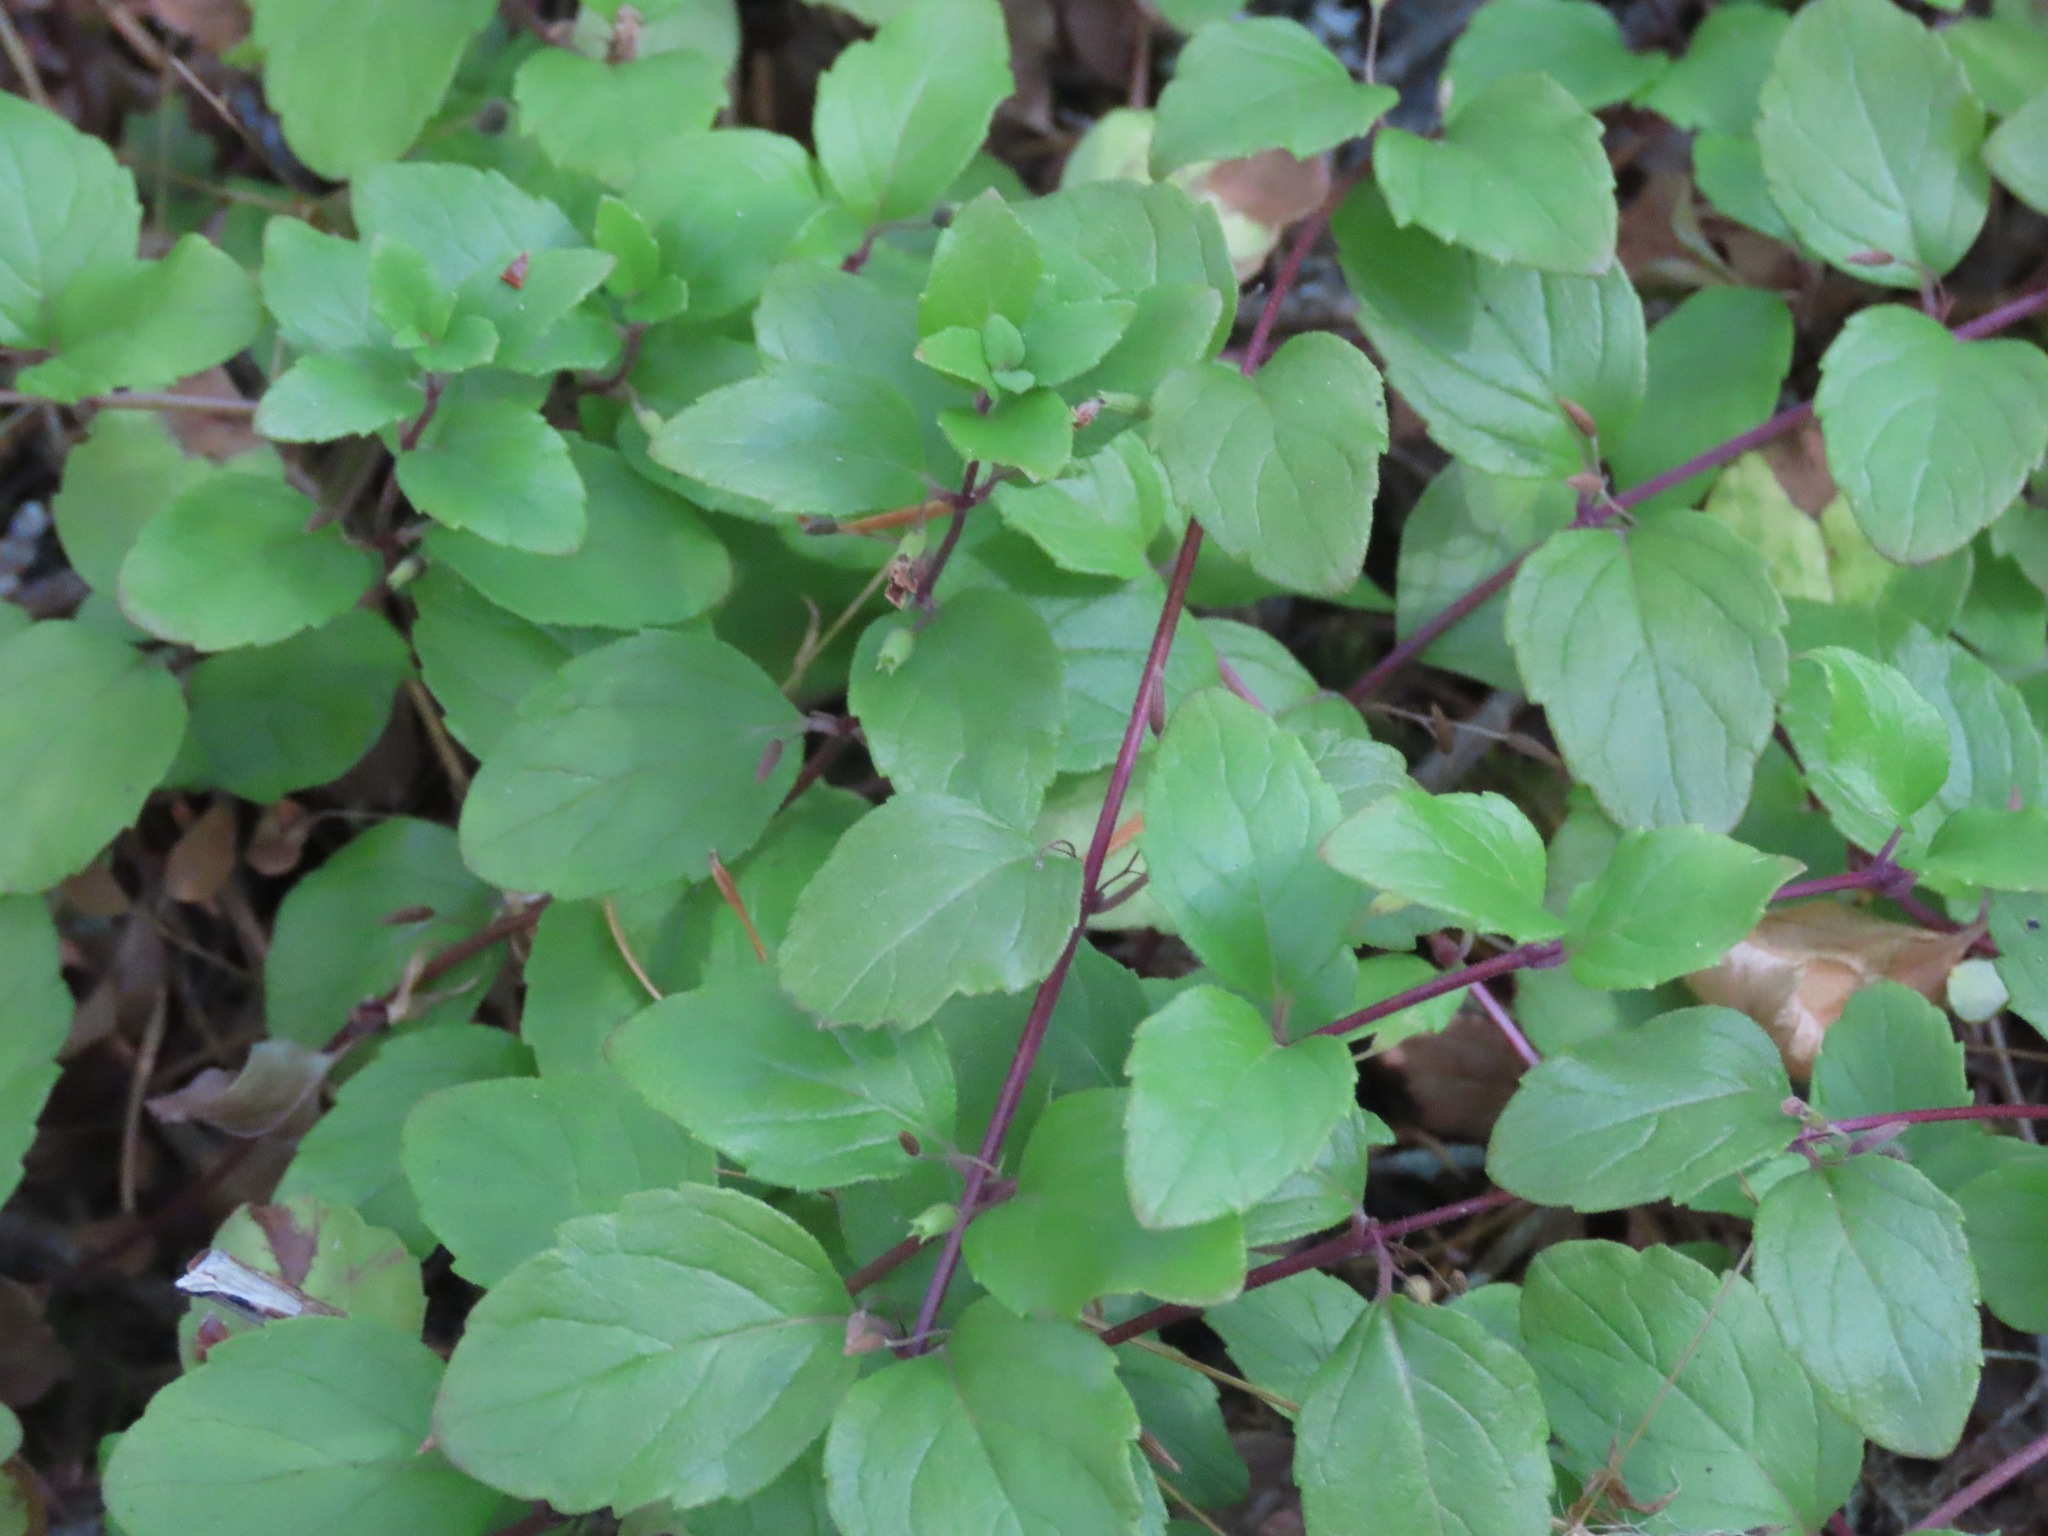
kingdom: Plantae
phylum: Tracheophyta
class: Magnoliopsida
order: Lamiales
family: Lamiaceae
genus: Micromeria
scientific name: Micromeria douglasii
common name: Yerba buena
